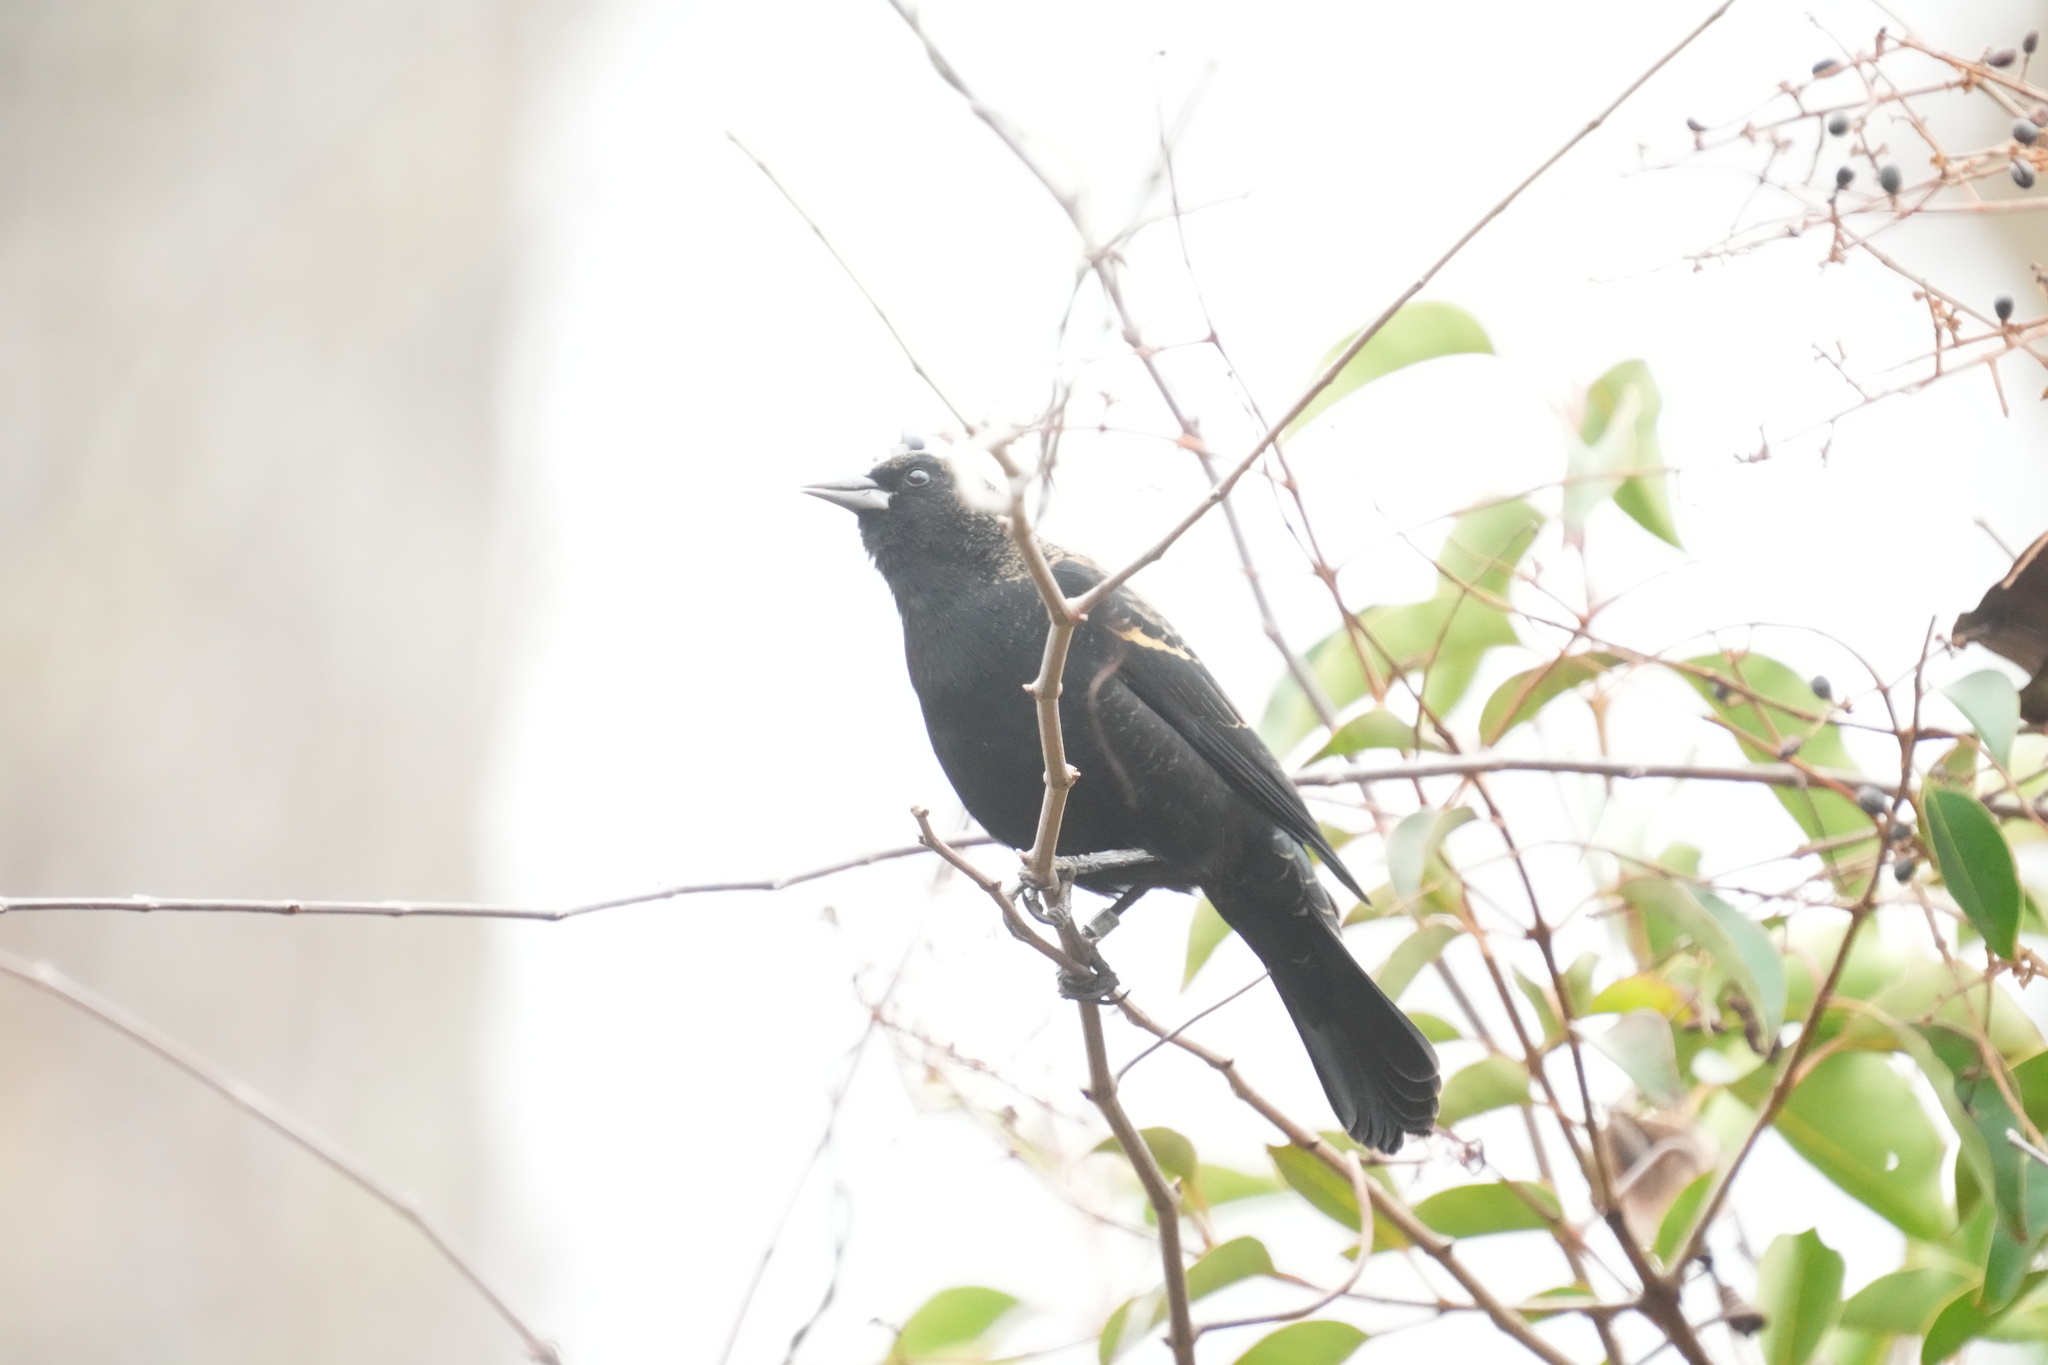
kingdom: Animalia
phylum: Chordata
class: Aves
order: Passeriformes
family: Icteridae
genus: Agelaius
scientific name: Agelaius phoeniceus
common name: Red-winged blackbird
